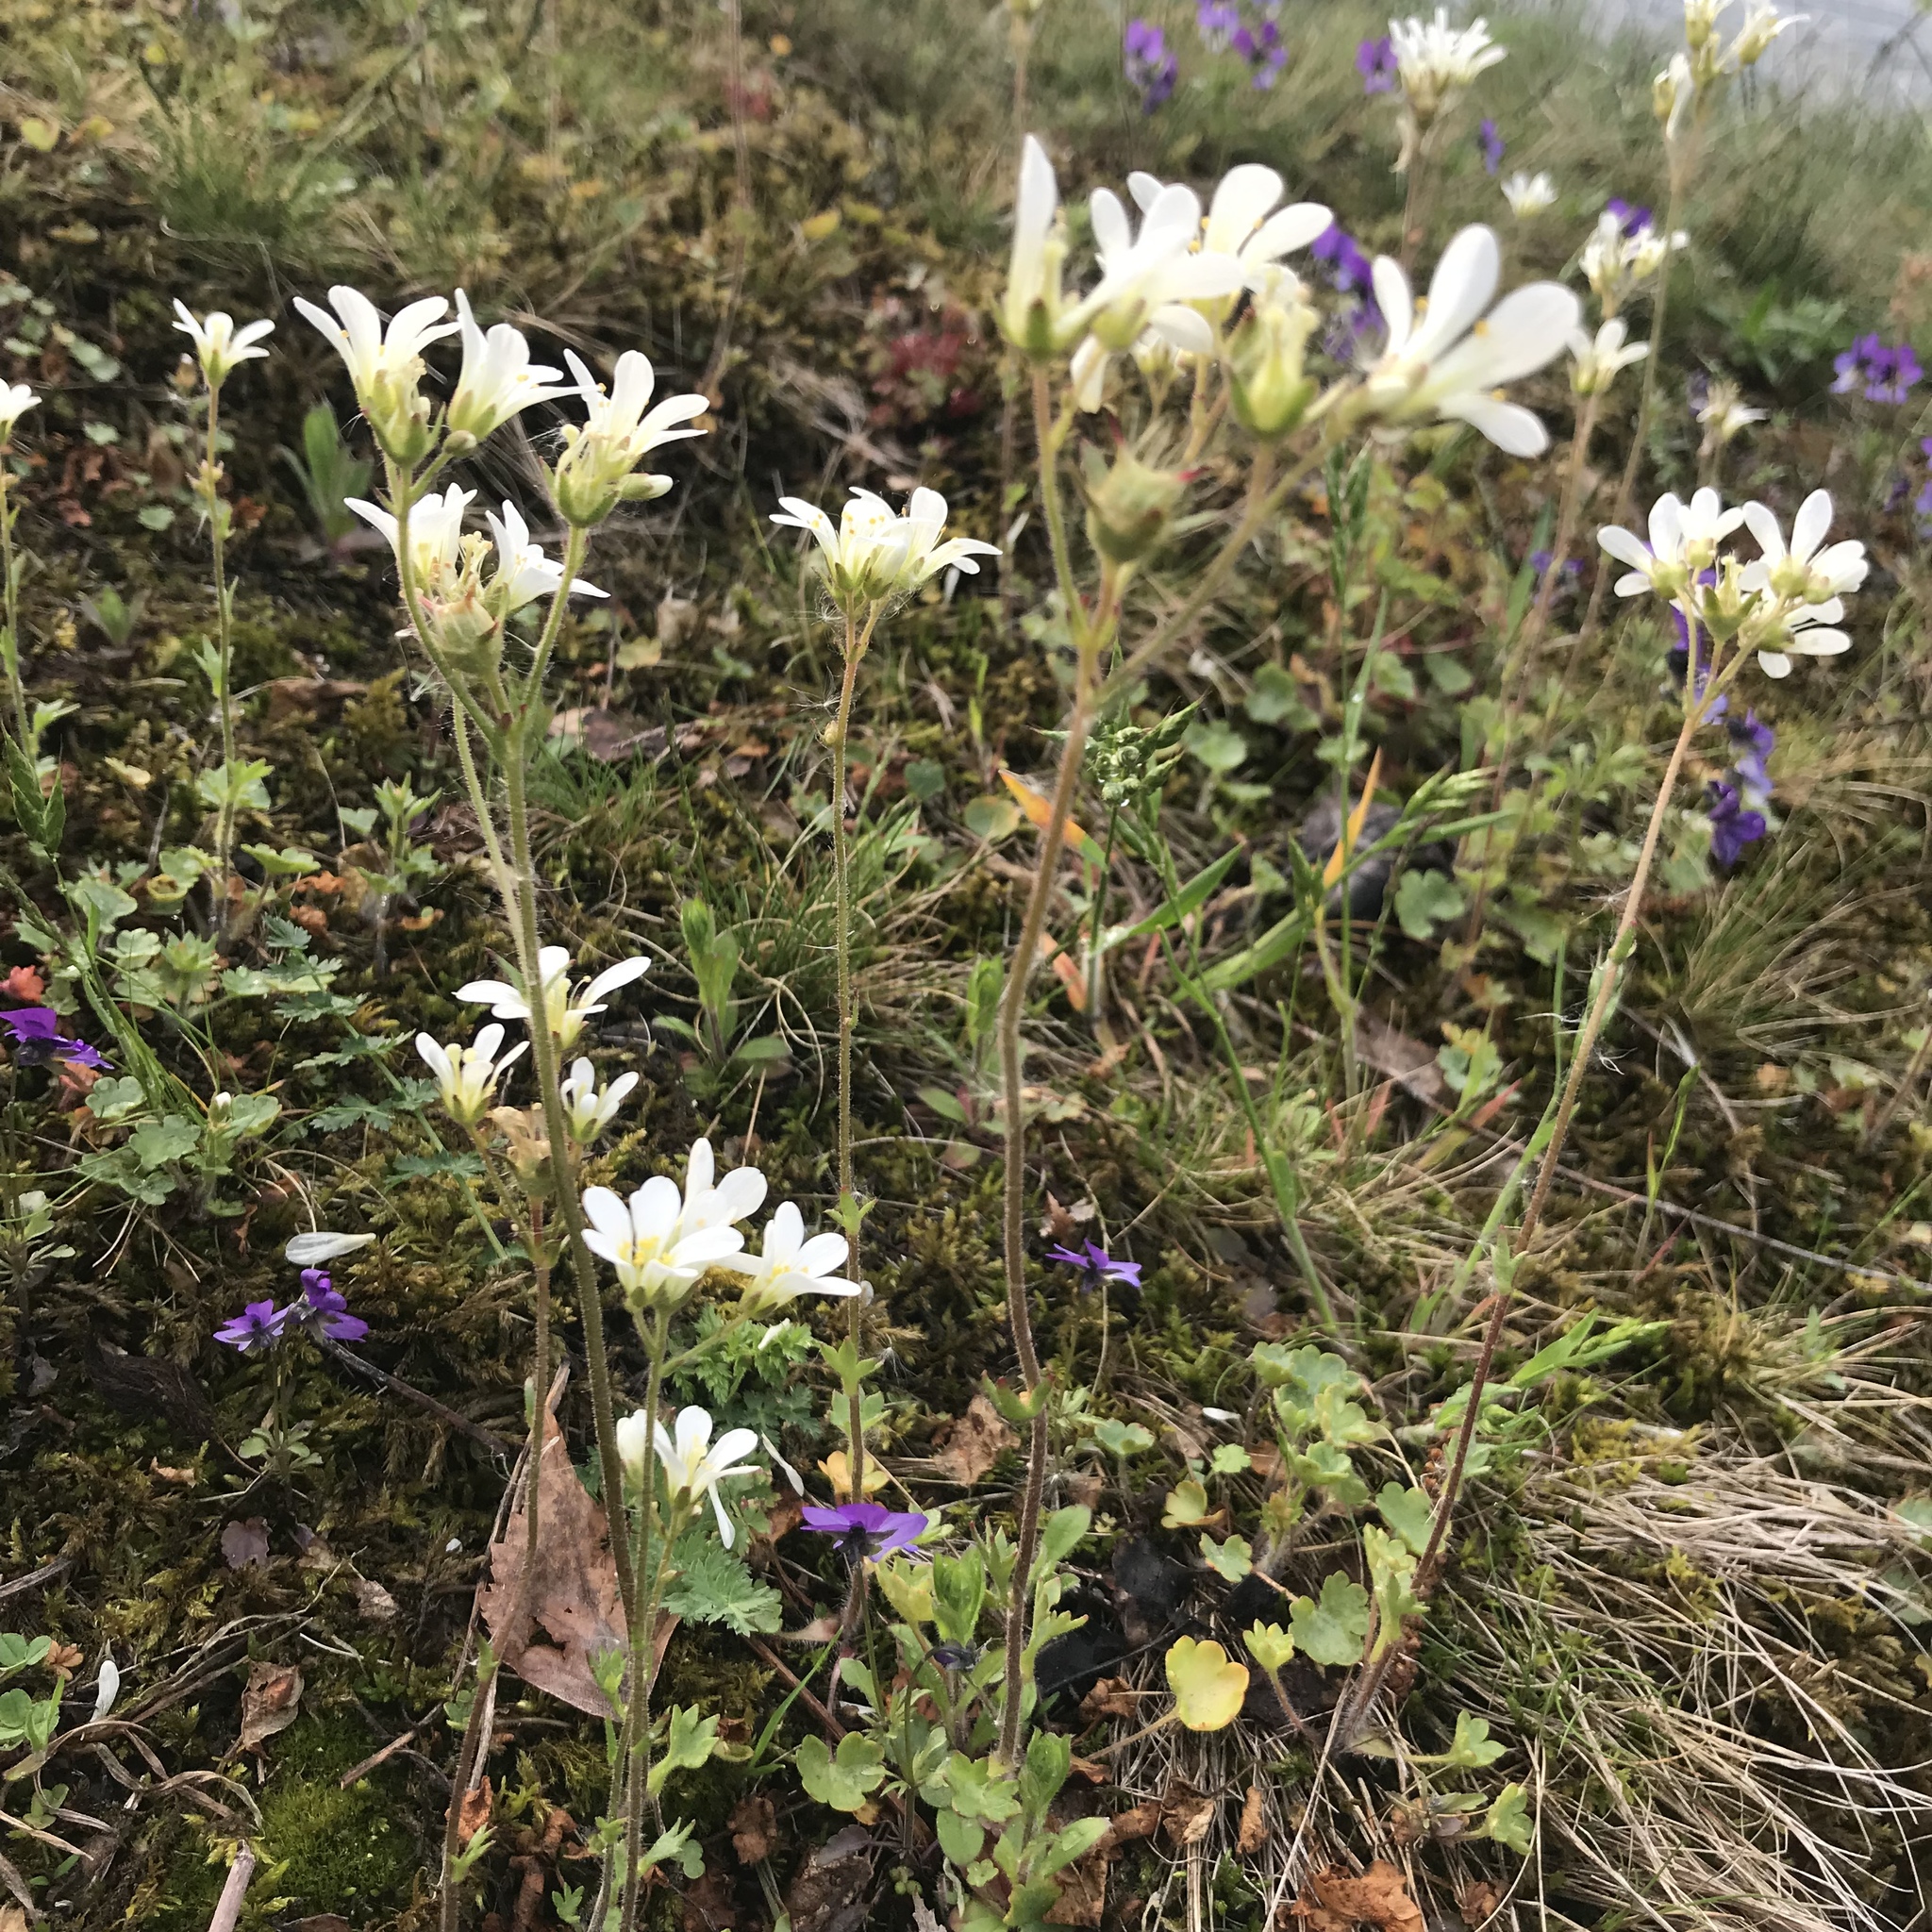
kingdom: Plantae
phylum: Tracheophyta
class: Magnoliopsida
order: Saxifragales
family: Saxifragaceae
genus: Saxifraga
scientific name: Saxifraga granulata
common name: Meadow saxifrage
